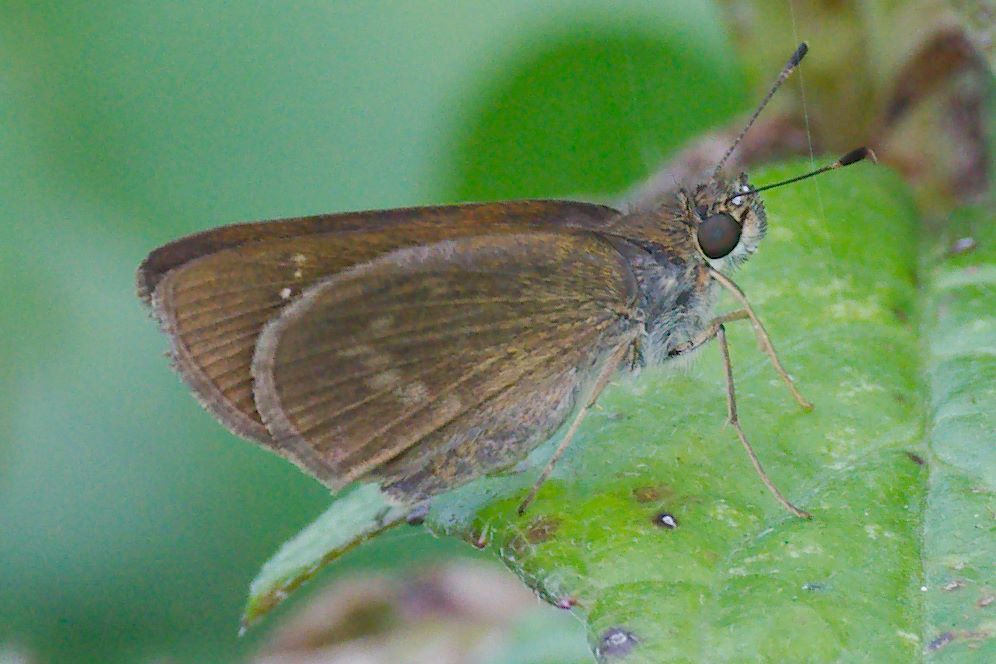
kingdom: Animalia
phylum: Arthropoda
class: Insecta
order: Lepidoptera
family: Hesperiidae
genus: Cymaenes
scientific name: Cymaenes tripunctus
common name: Dingy dotted skipper
